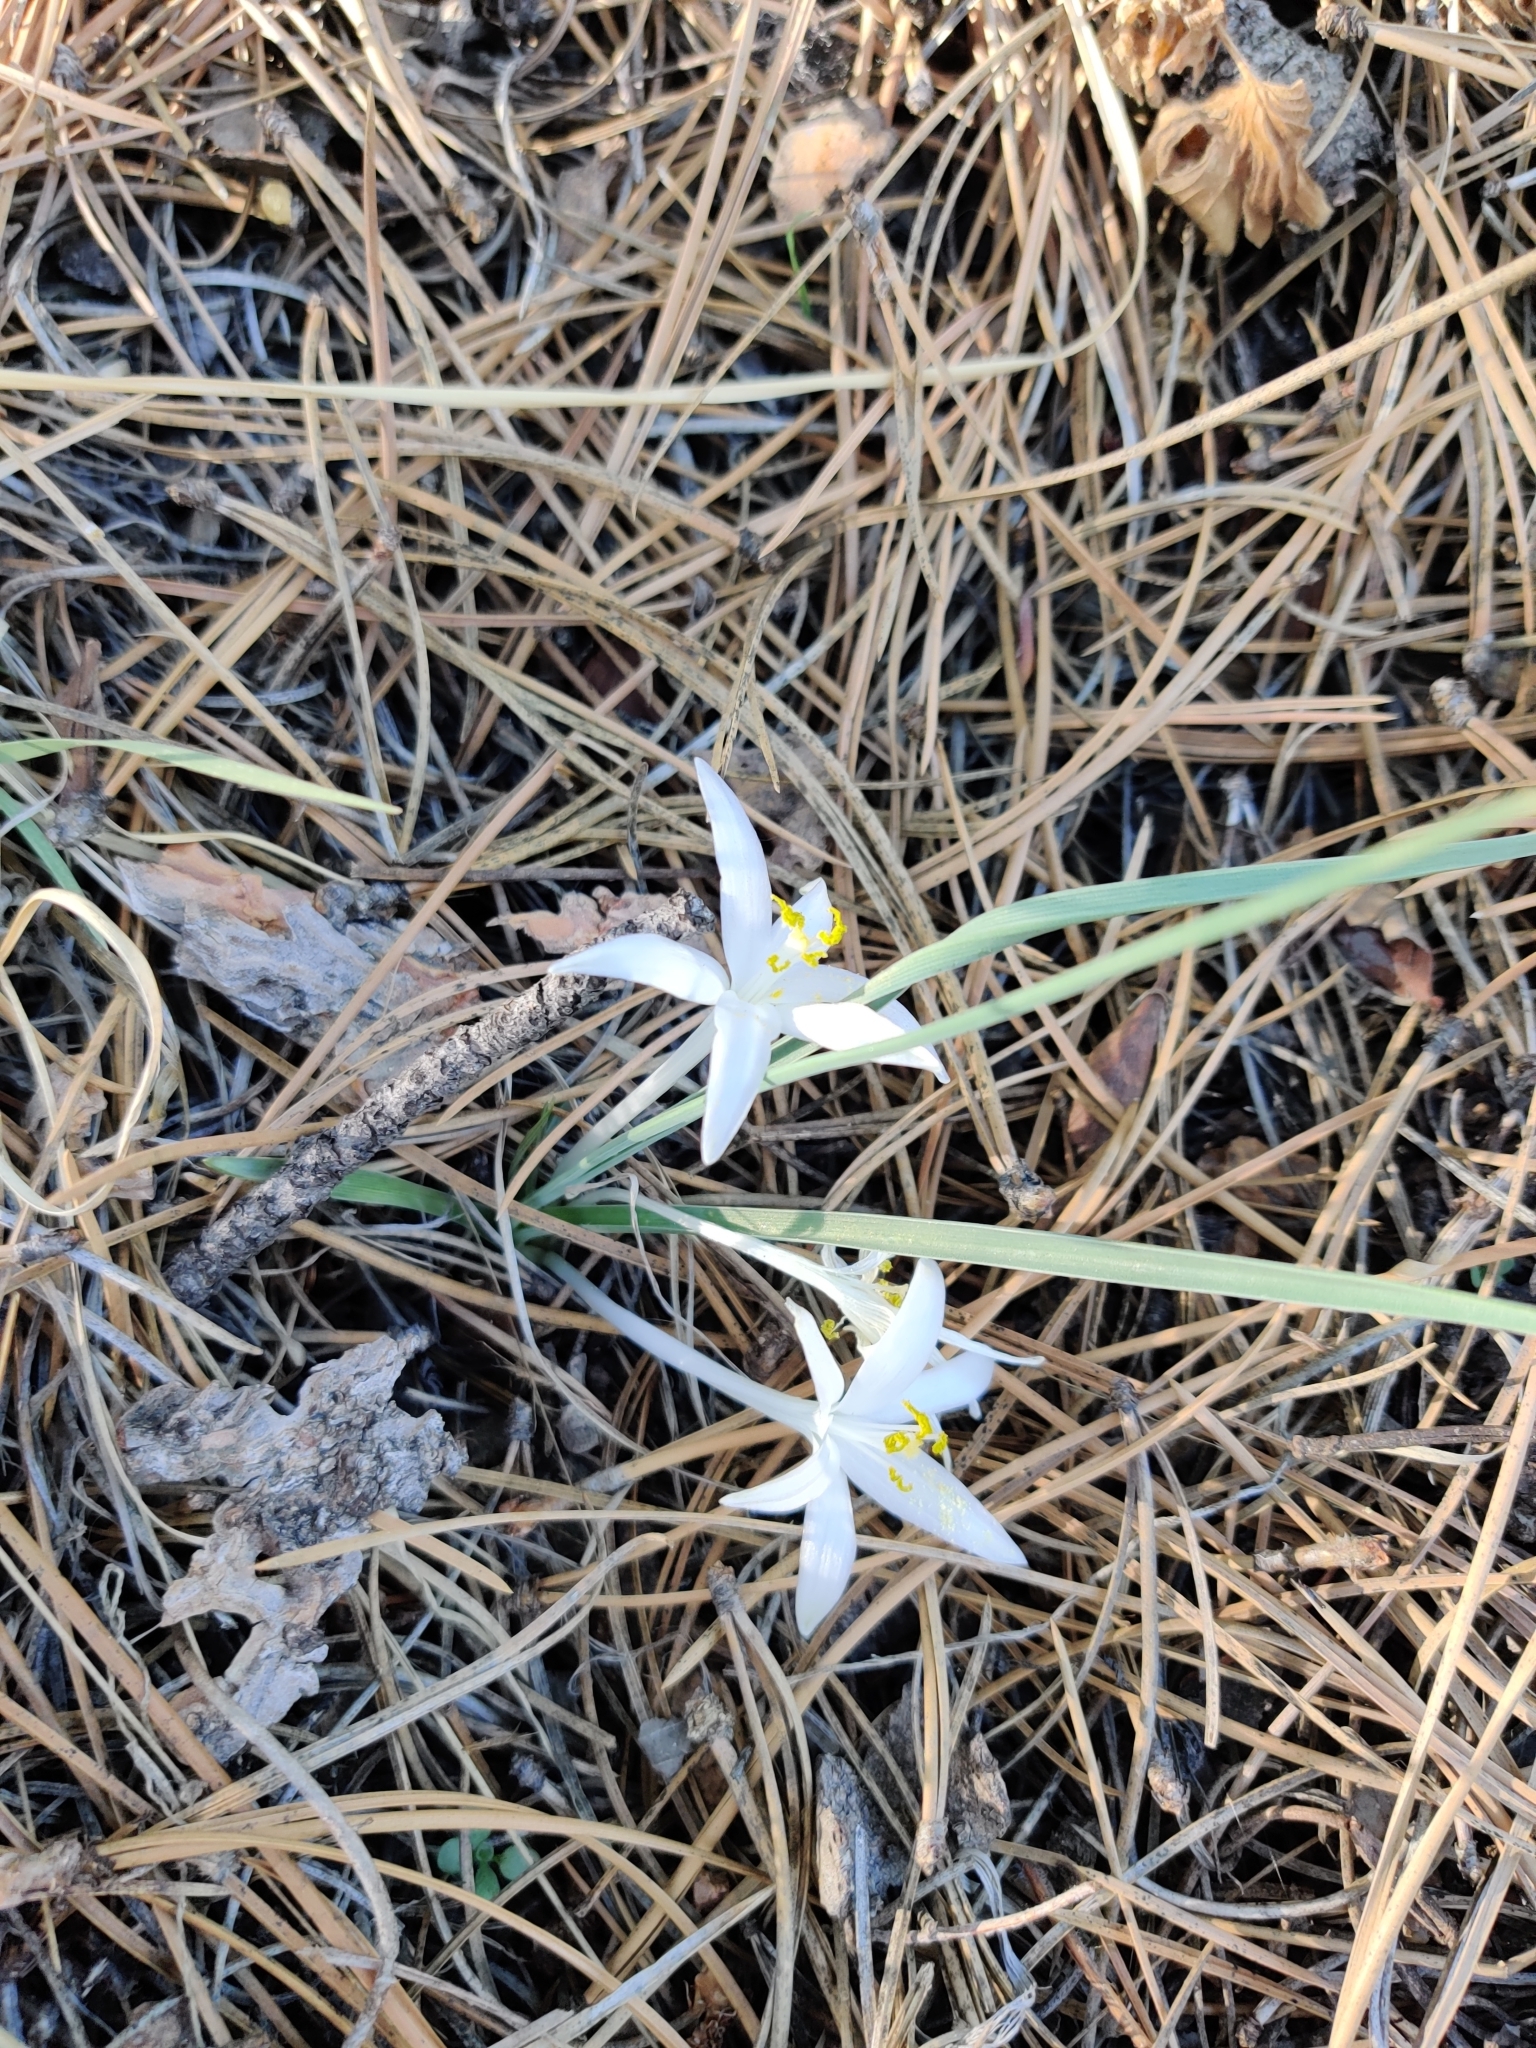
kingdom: Plantae
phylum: Tracheophyta
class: Liliopsida
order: Asparagales
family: Asparagaceae
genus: Leucocrinum
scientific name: Leucocrinum montanum
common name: Mountain-lily
